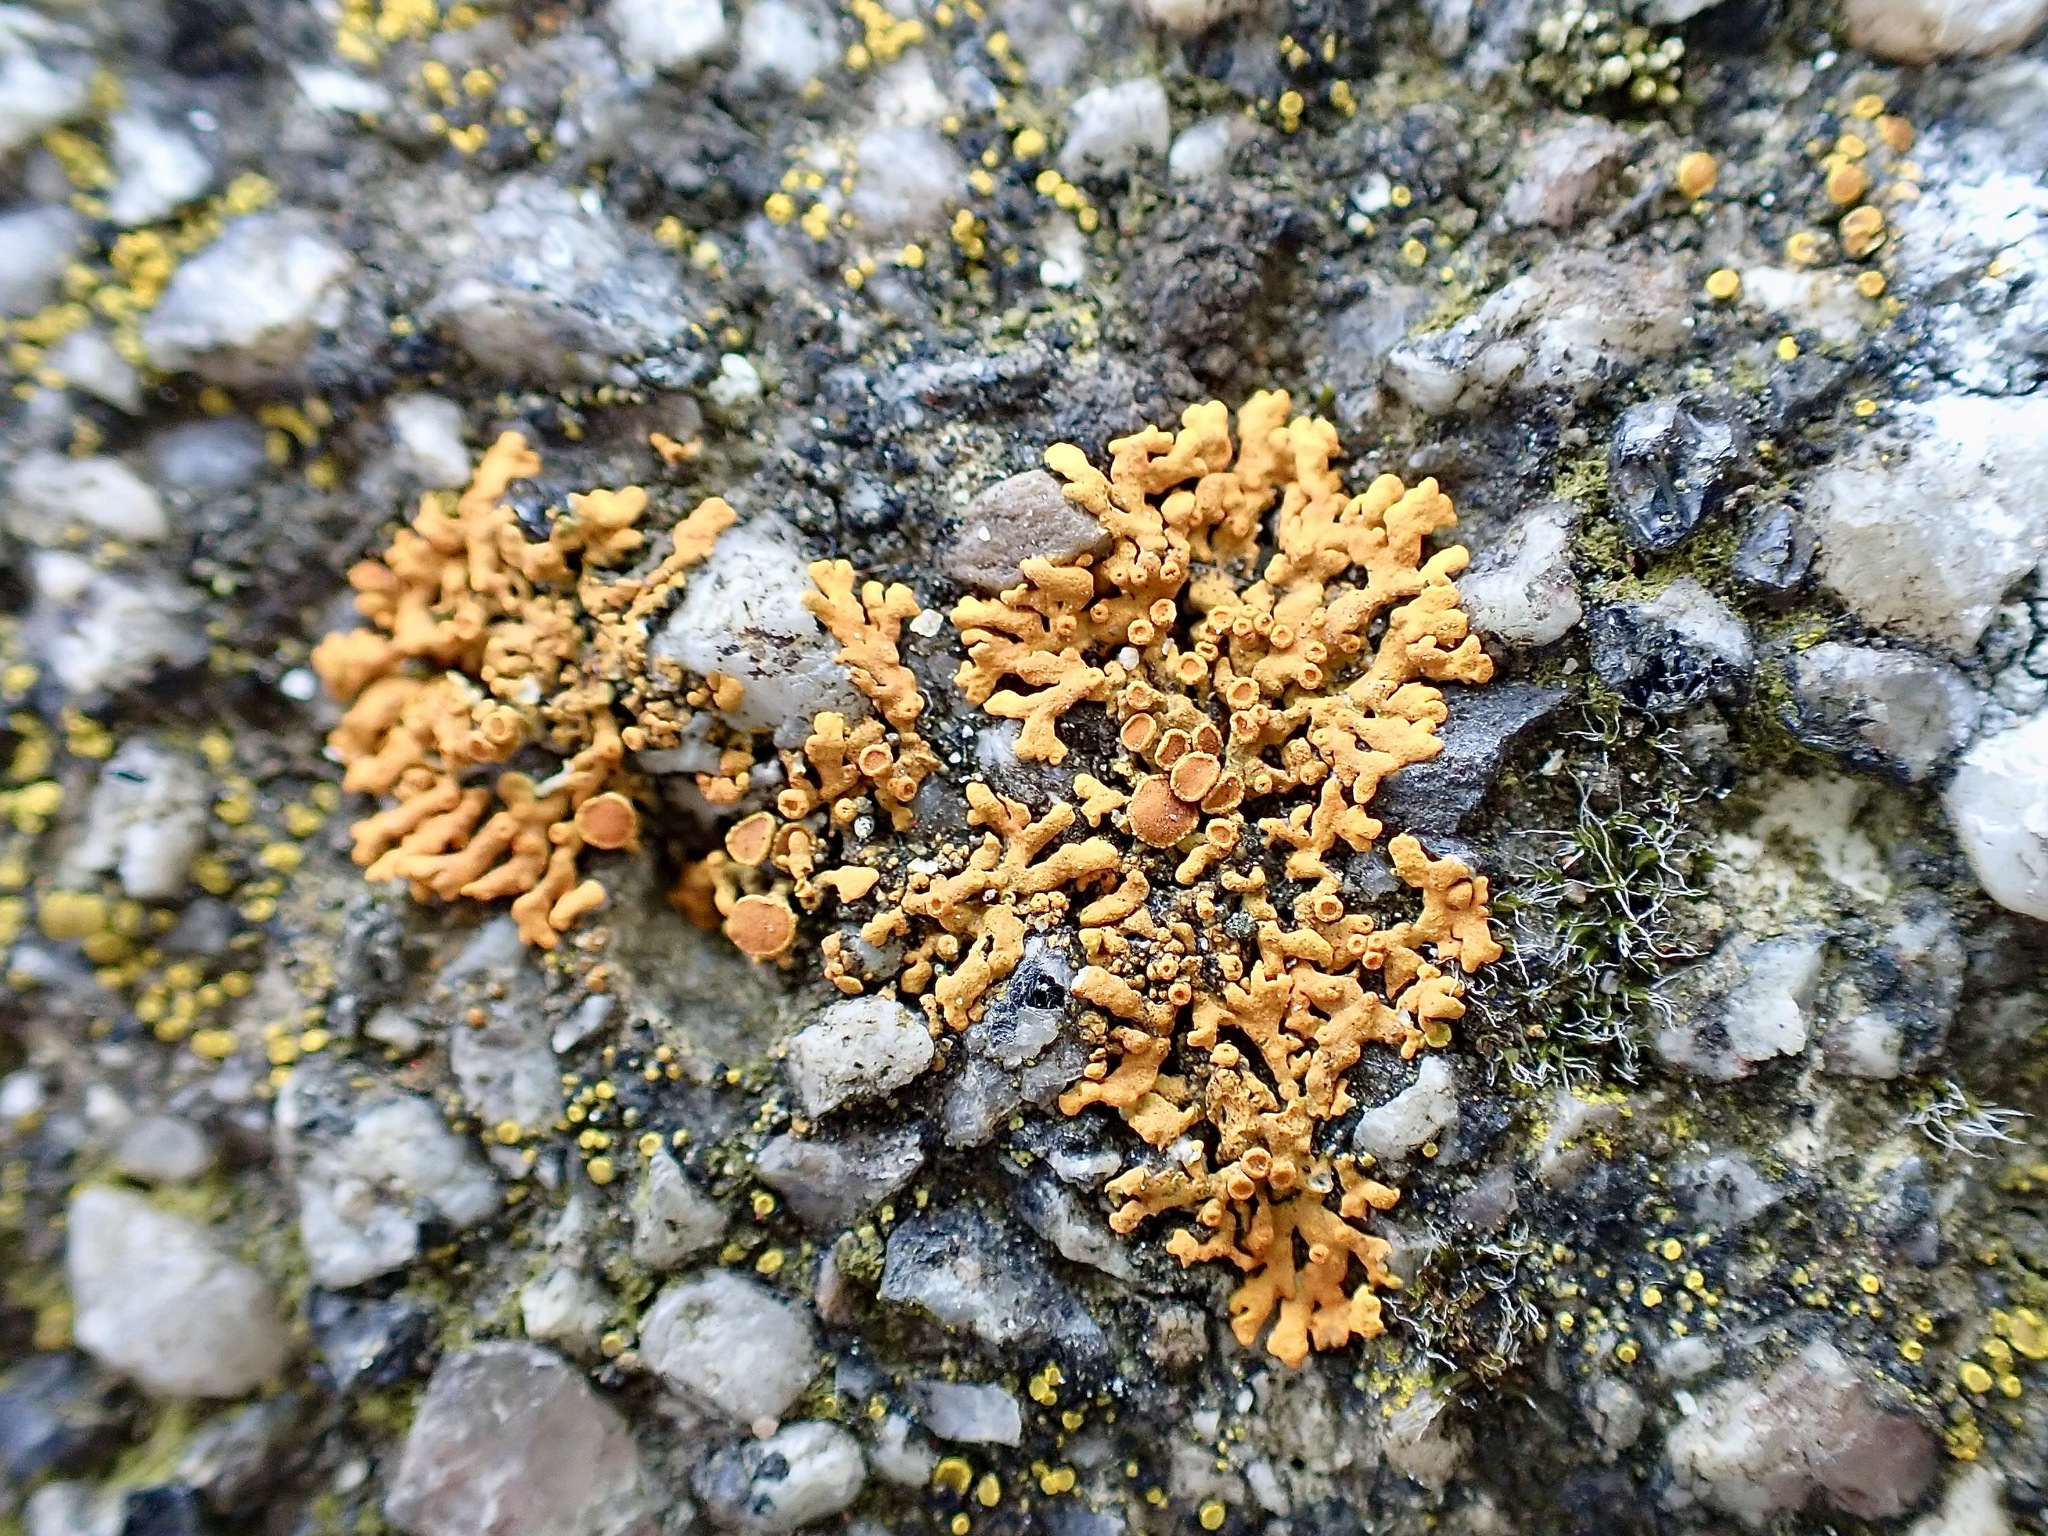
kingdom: Fungi
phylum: Ascomycota
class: Lecanoromycetes
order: Teloschistales
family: Teloschistaceae
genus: Xanthoria
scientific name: Xanthoria elegans
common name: Elegant sunburst lichen
